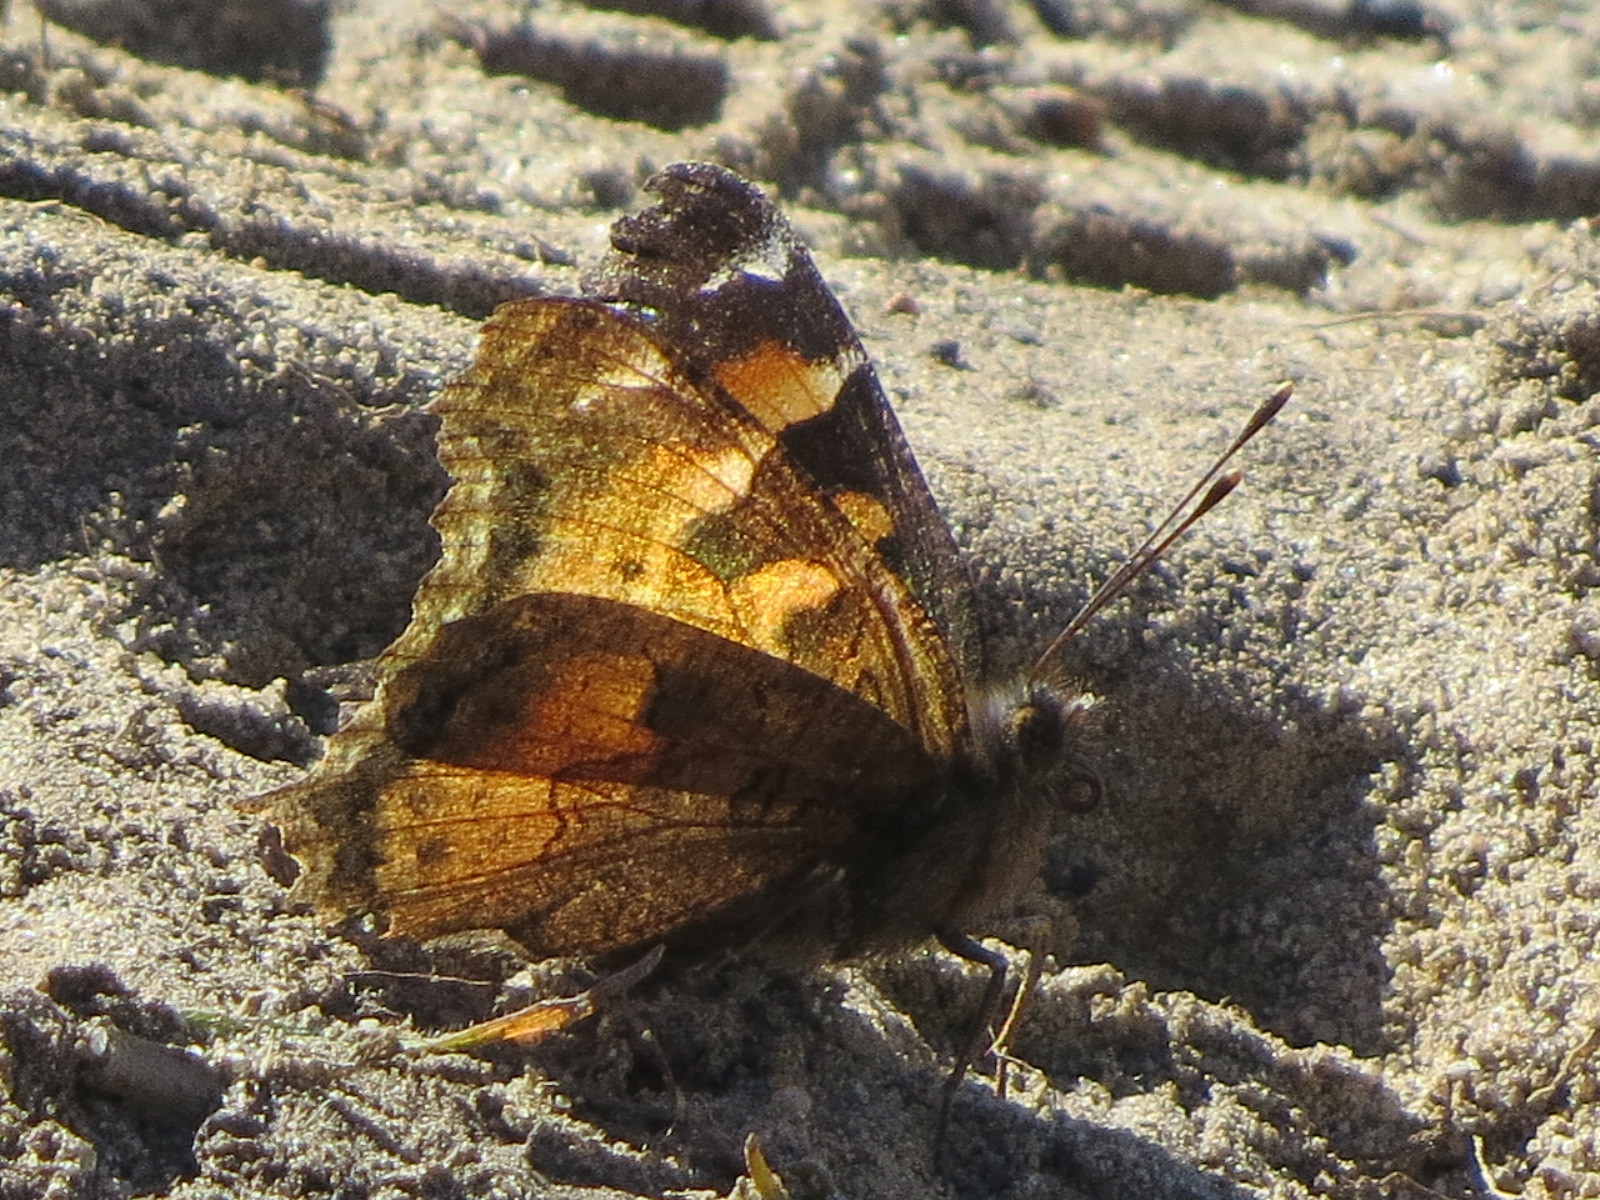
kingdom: Animalia
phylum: Arthropoda
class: Insecta
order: Lepidoptera
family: Nymphalidae
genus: Nymphalis
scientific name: Nymphalis californica
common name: California tortoiseshell
